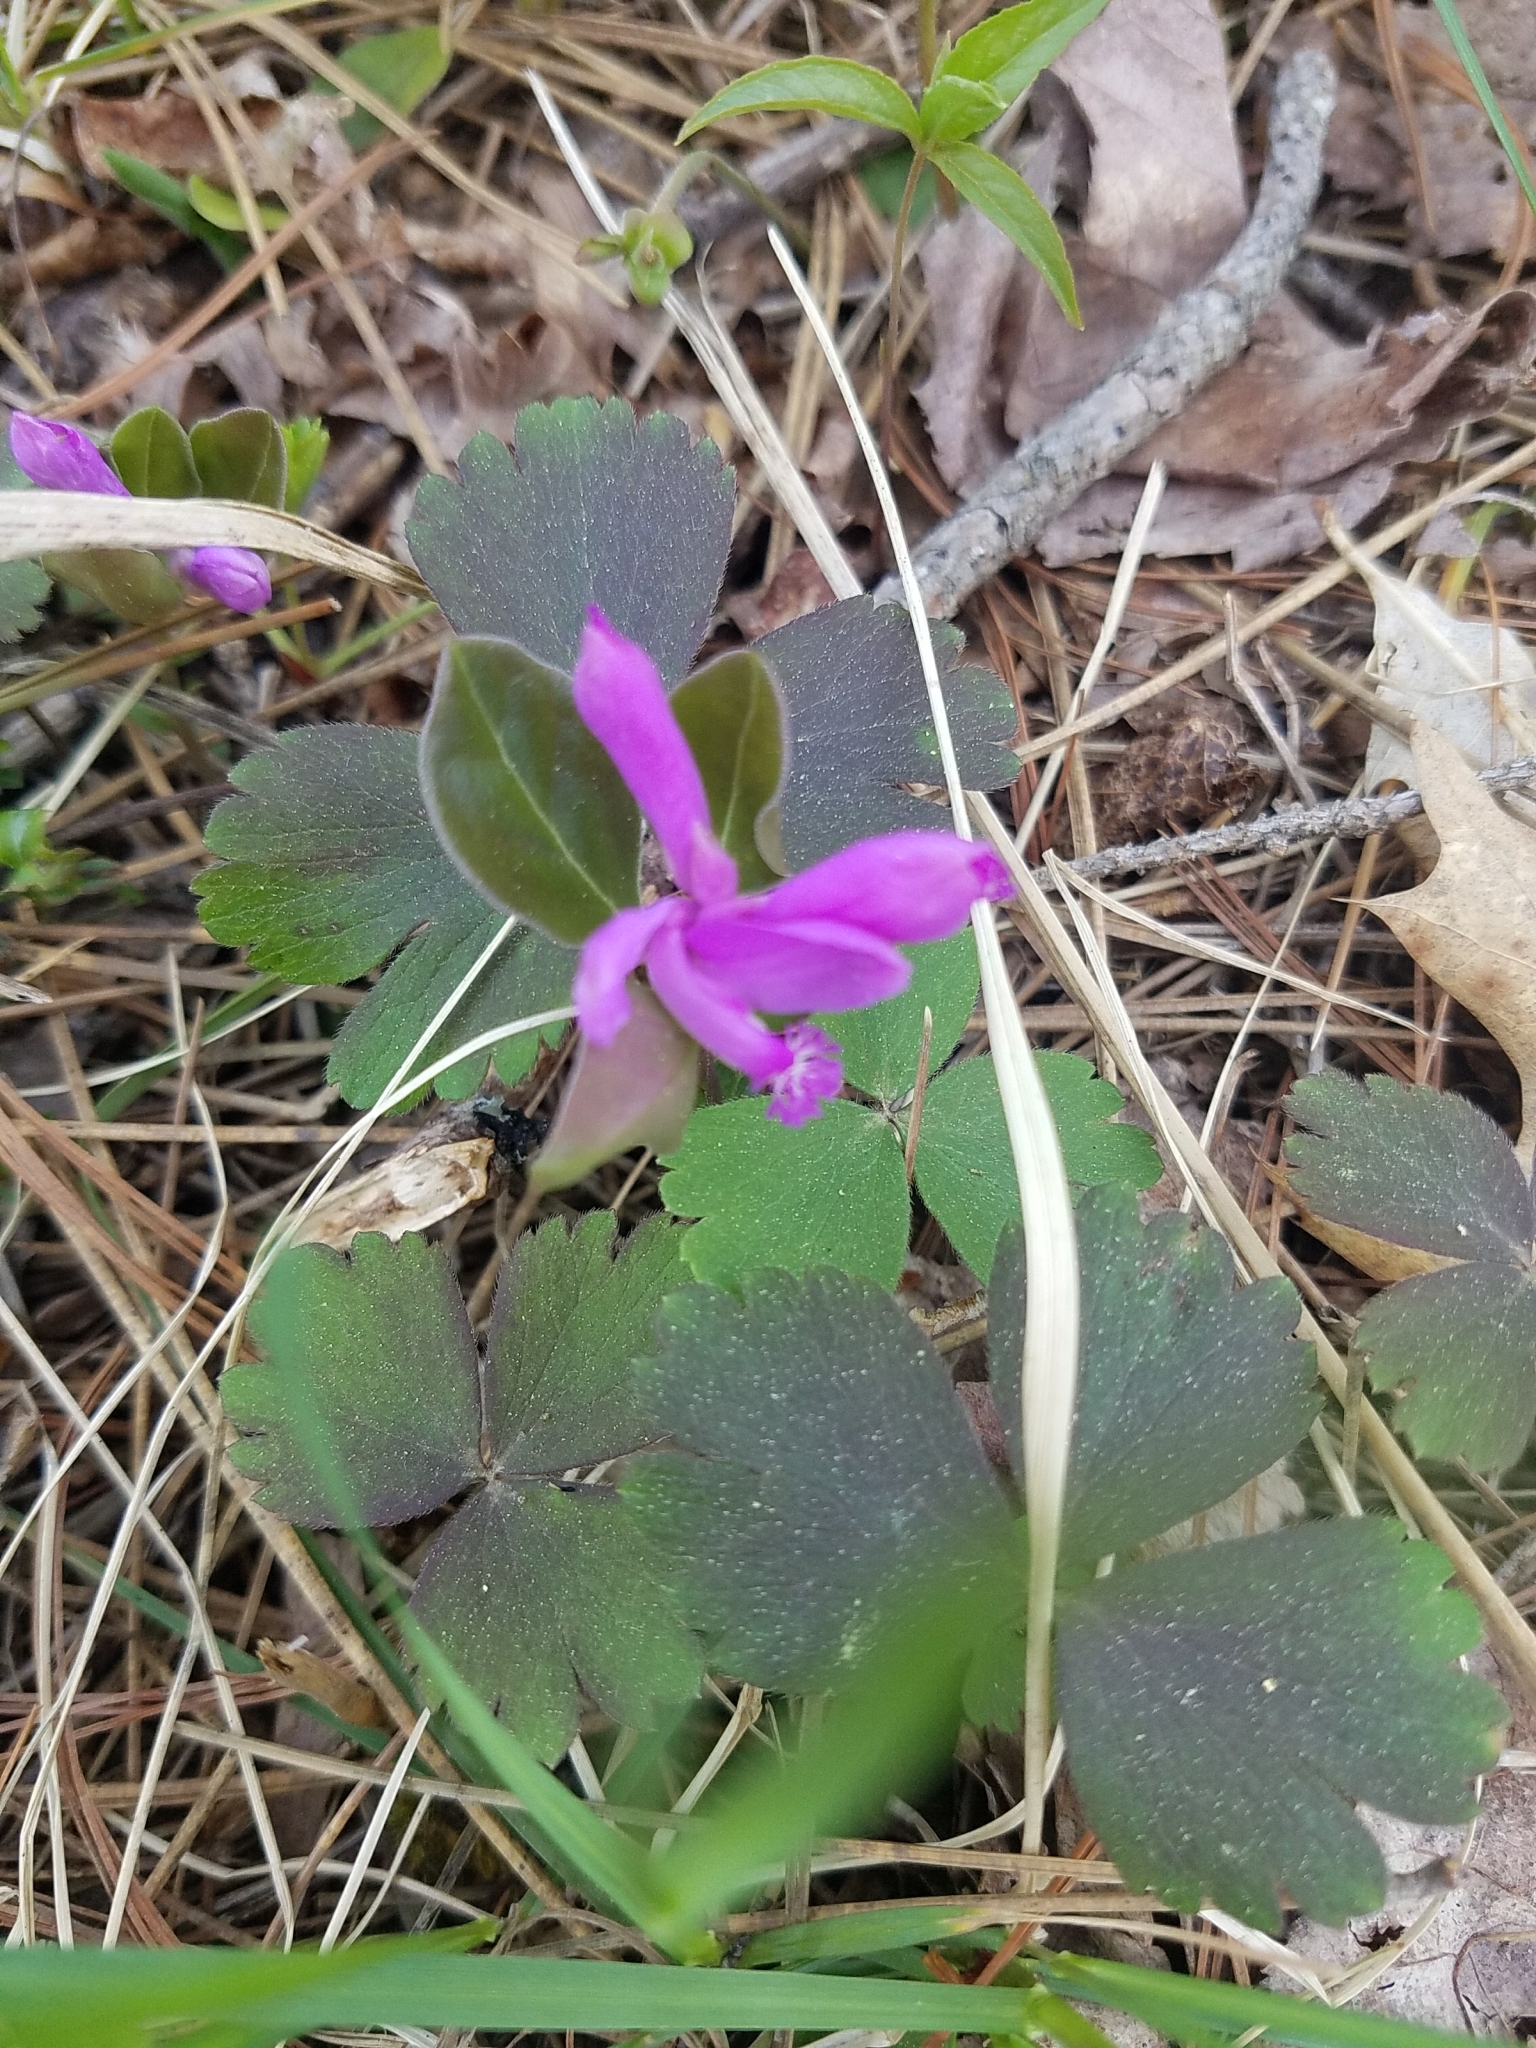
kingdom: Plantae
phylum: Tracheophyta
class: Magnoliopsida
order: Fabales
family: Polygalaceae
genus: Polygaloides
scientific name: Polygaloides paucifolia
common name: Bird-on-the-wing
